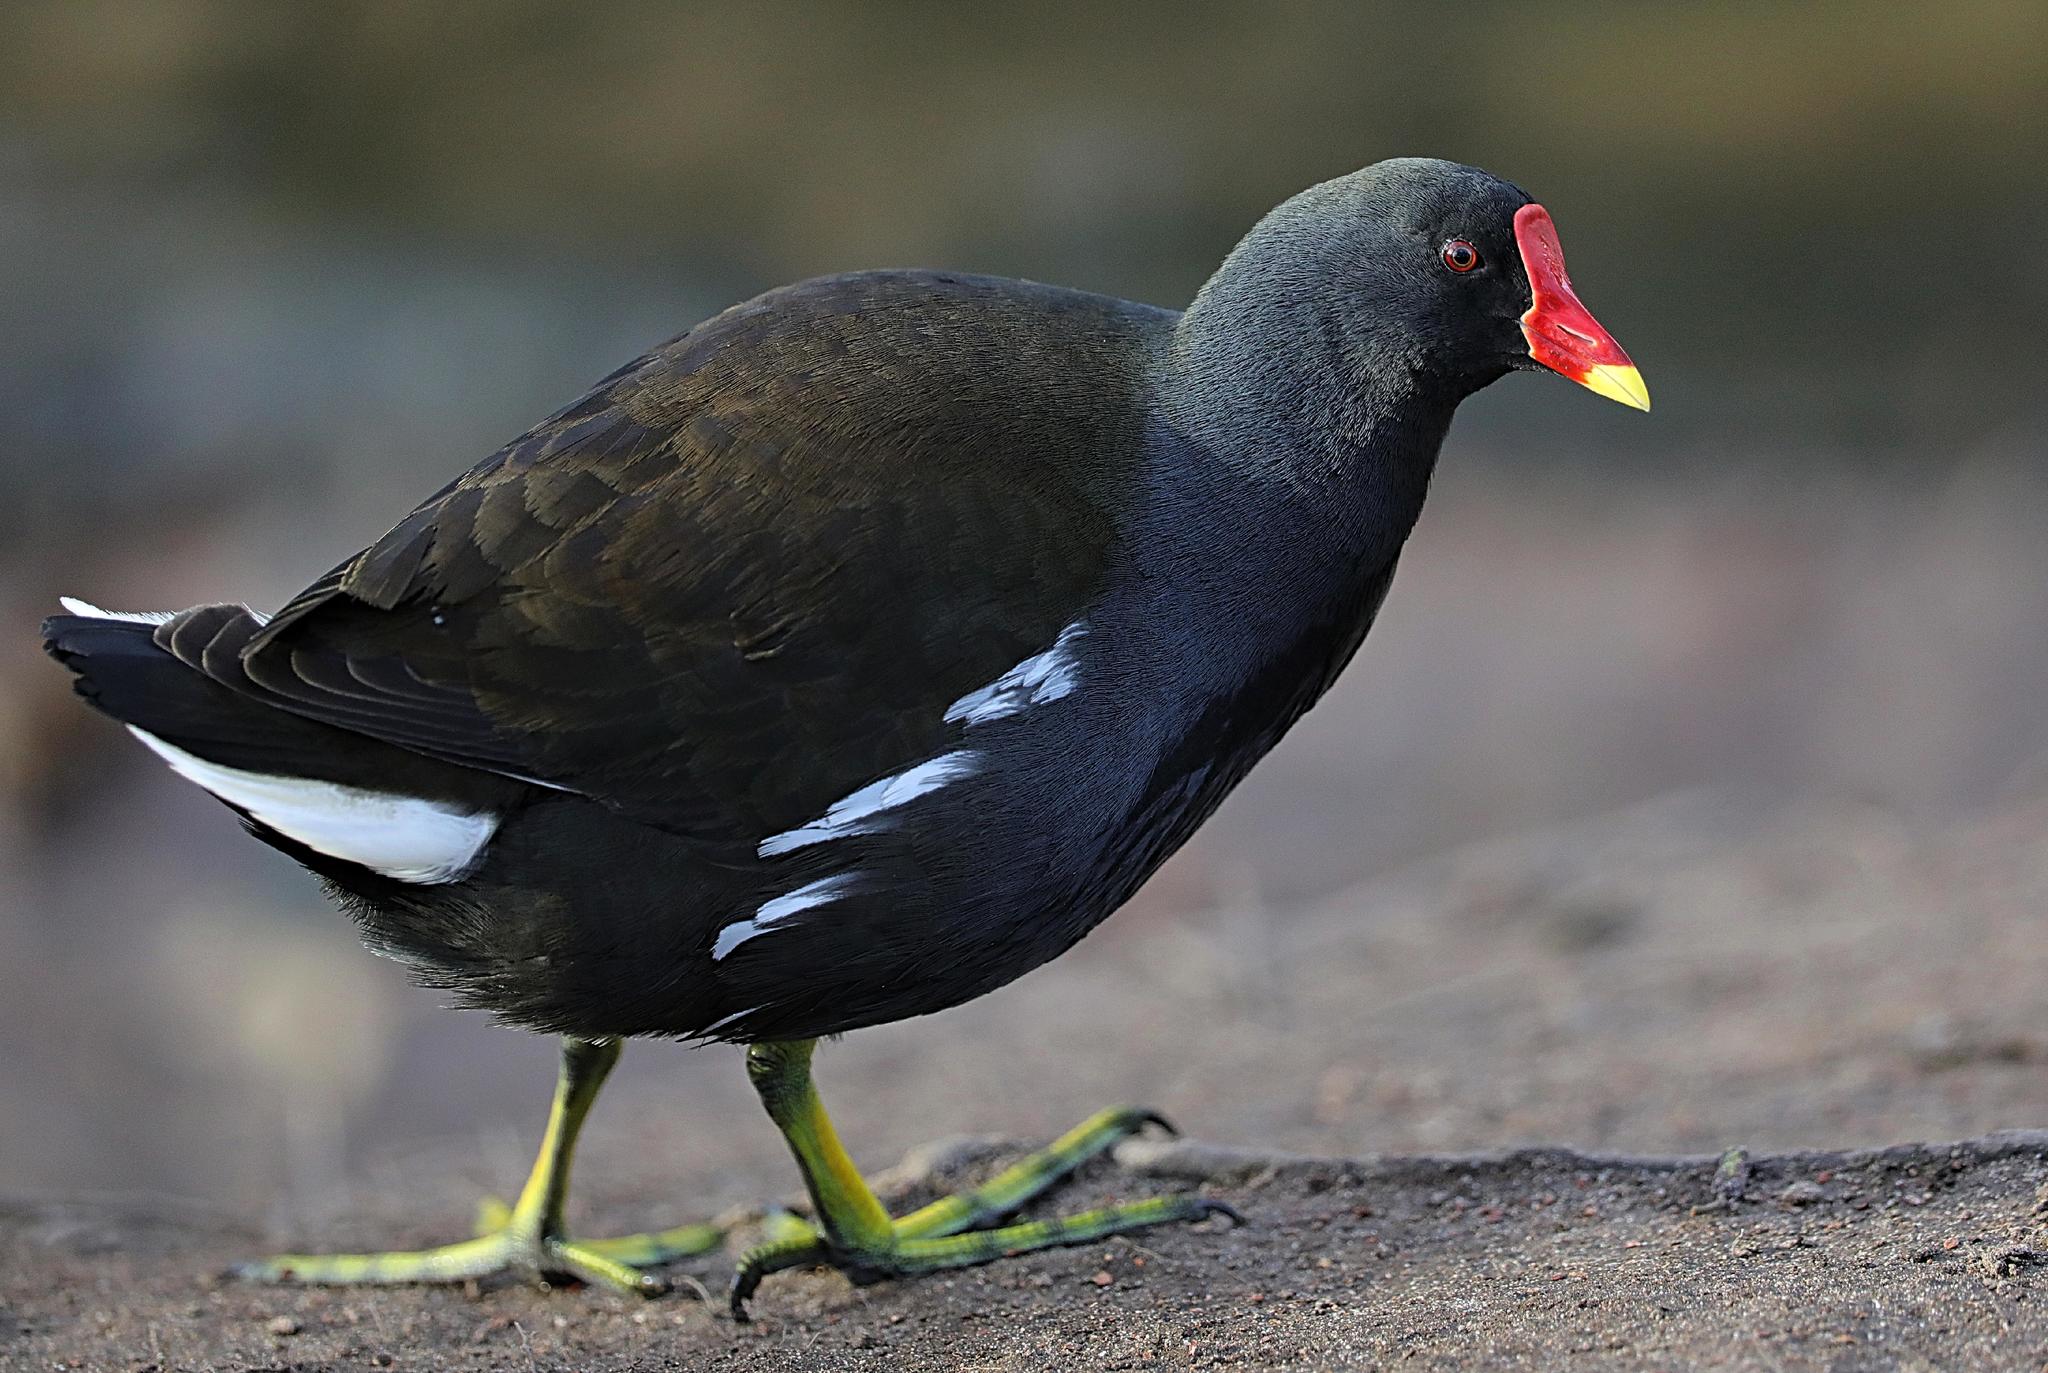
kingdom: Animalia
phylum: Chordata
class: Aves
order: Gruiformes
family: Rallidae
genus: Gallinula
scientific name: Gallinula chloropus
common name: Common moorhen
